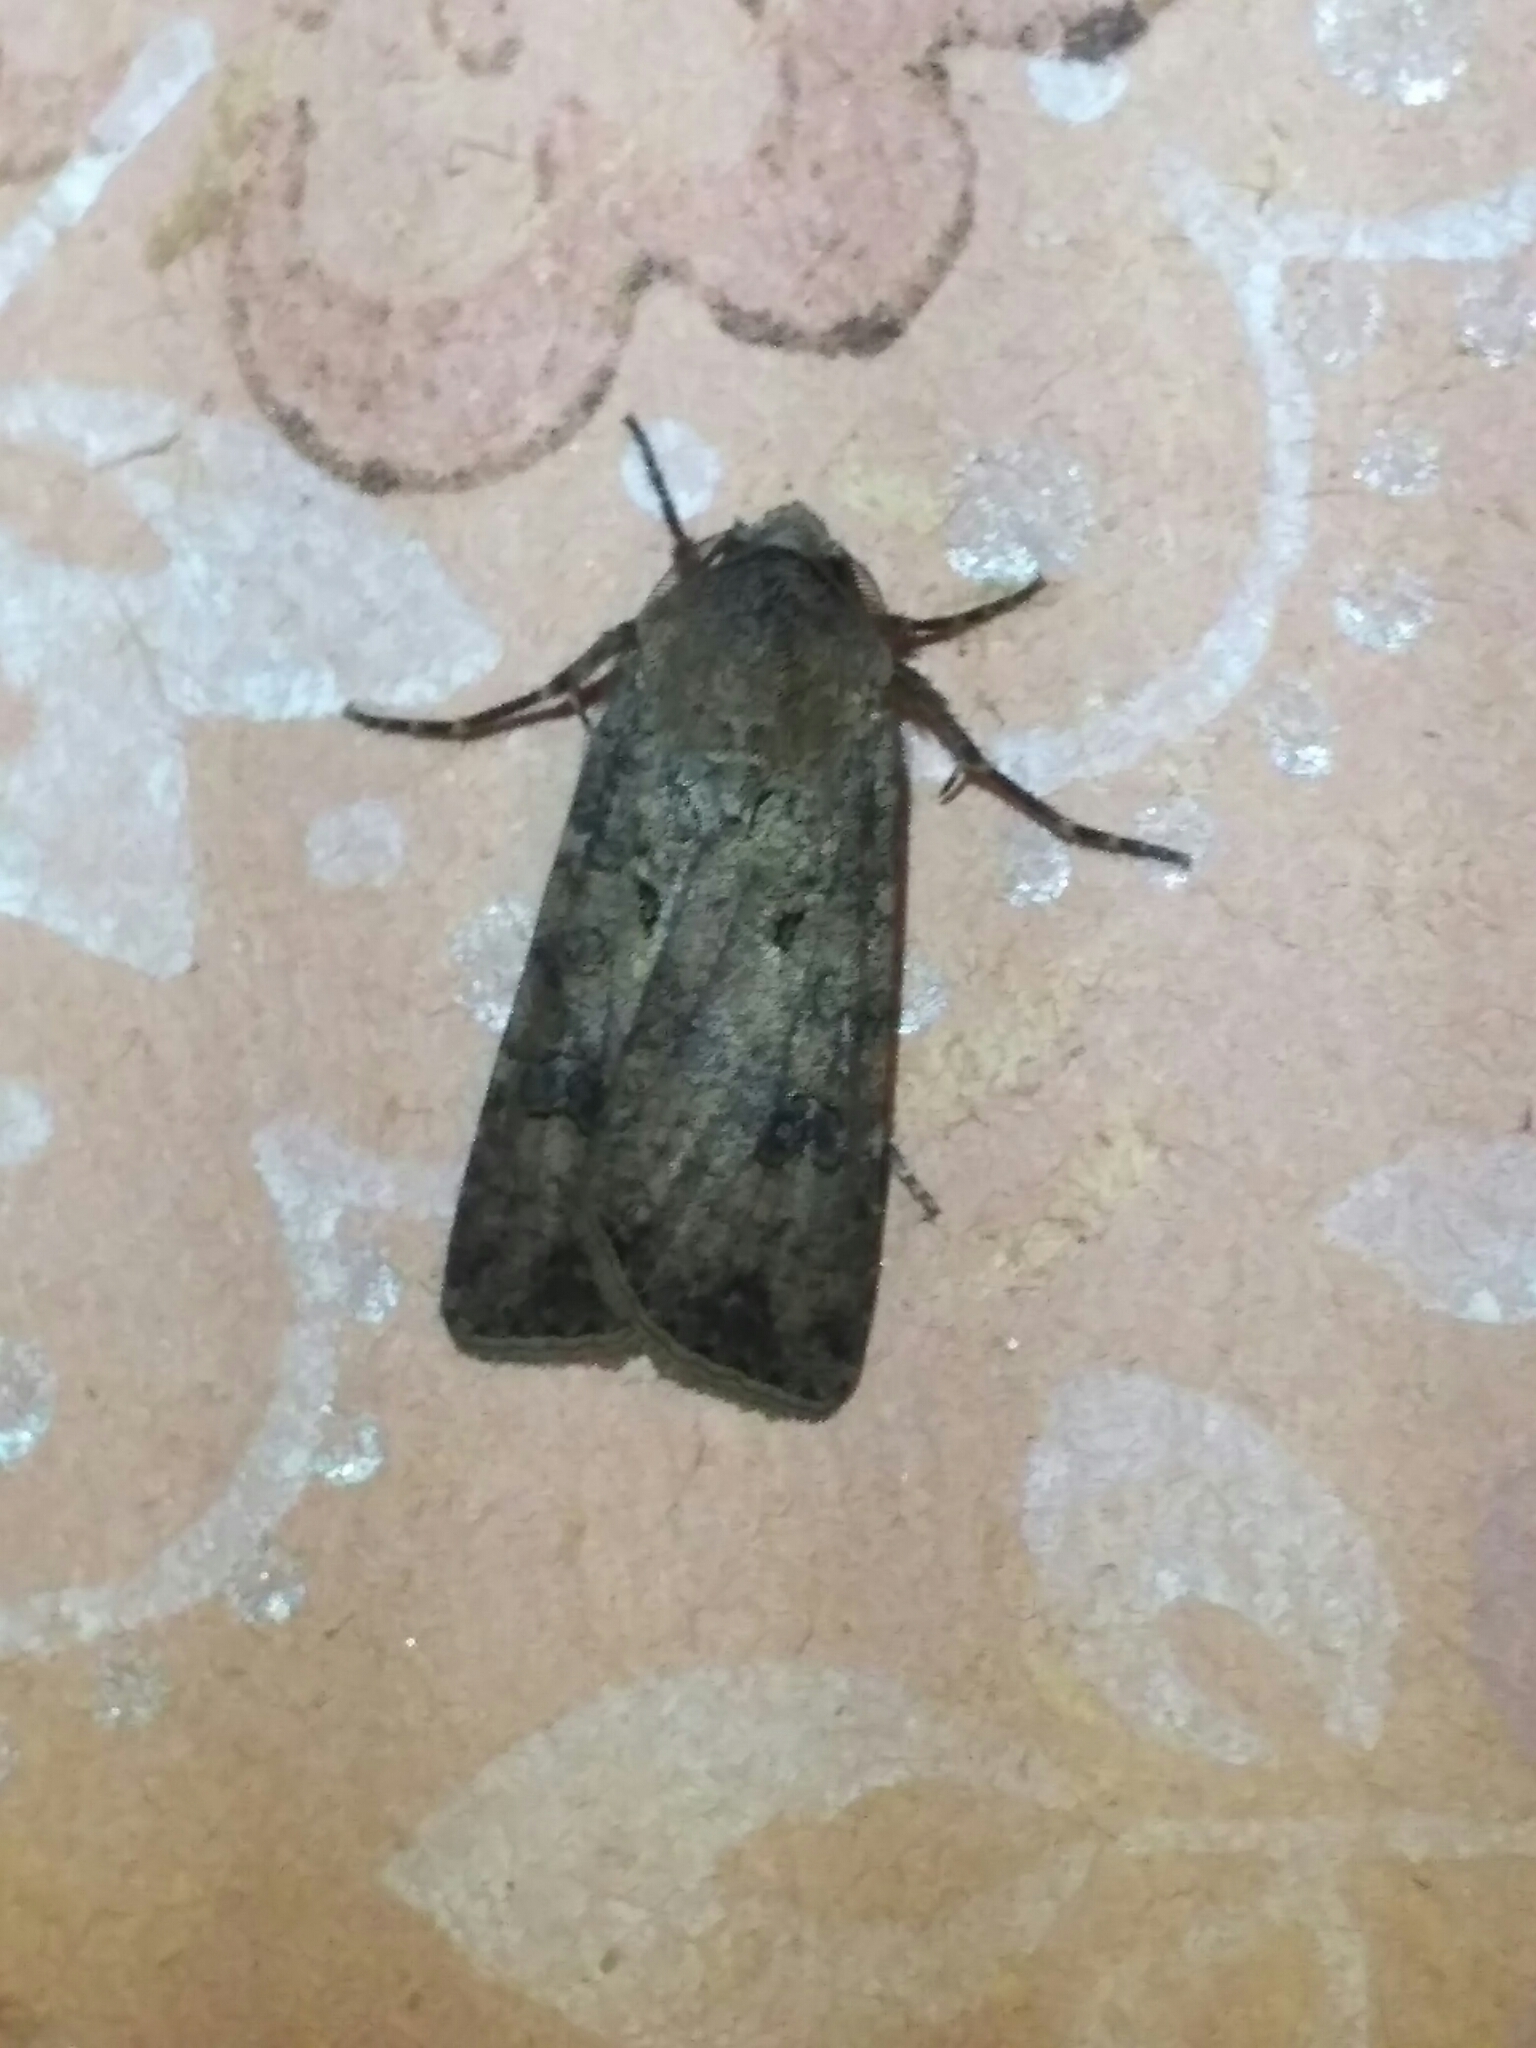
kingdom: Animalia
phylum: Arthropoda
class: Insecta
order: Lepidoptera
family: Noctuidae
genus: Agrotis
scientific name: Agrotis segetum
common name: Turnip moth
